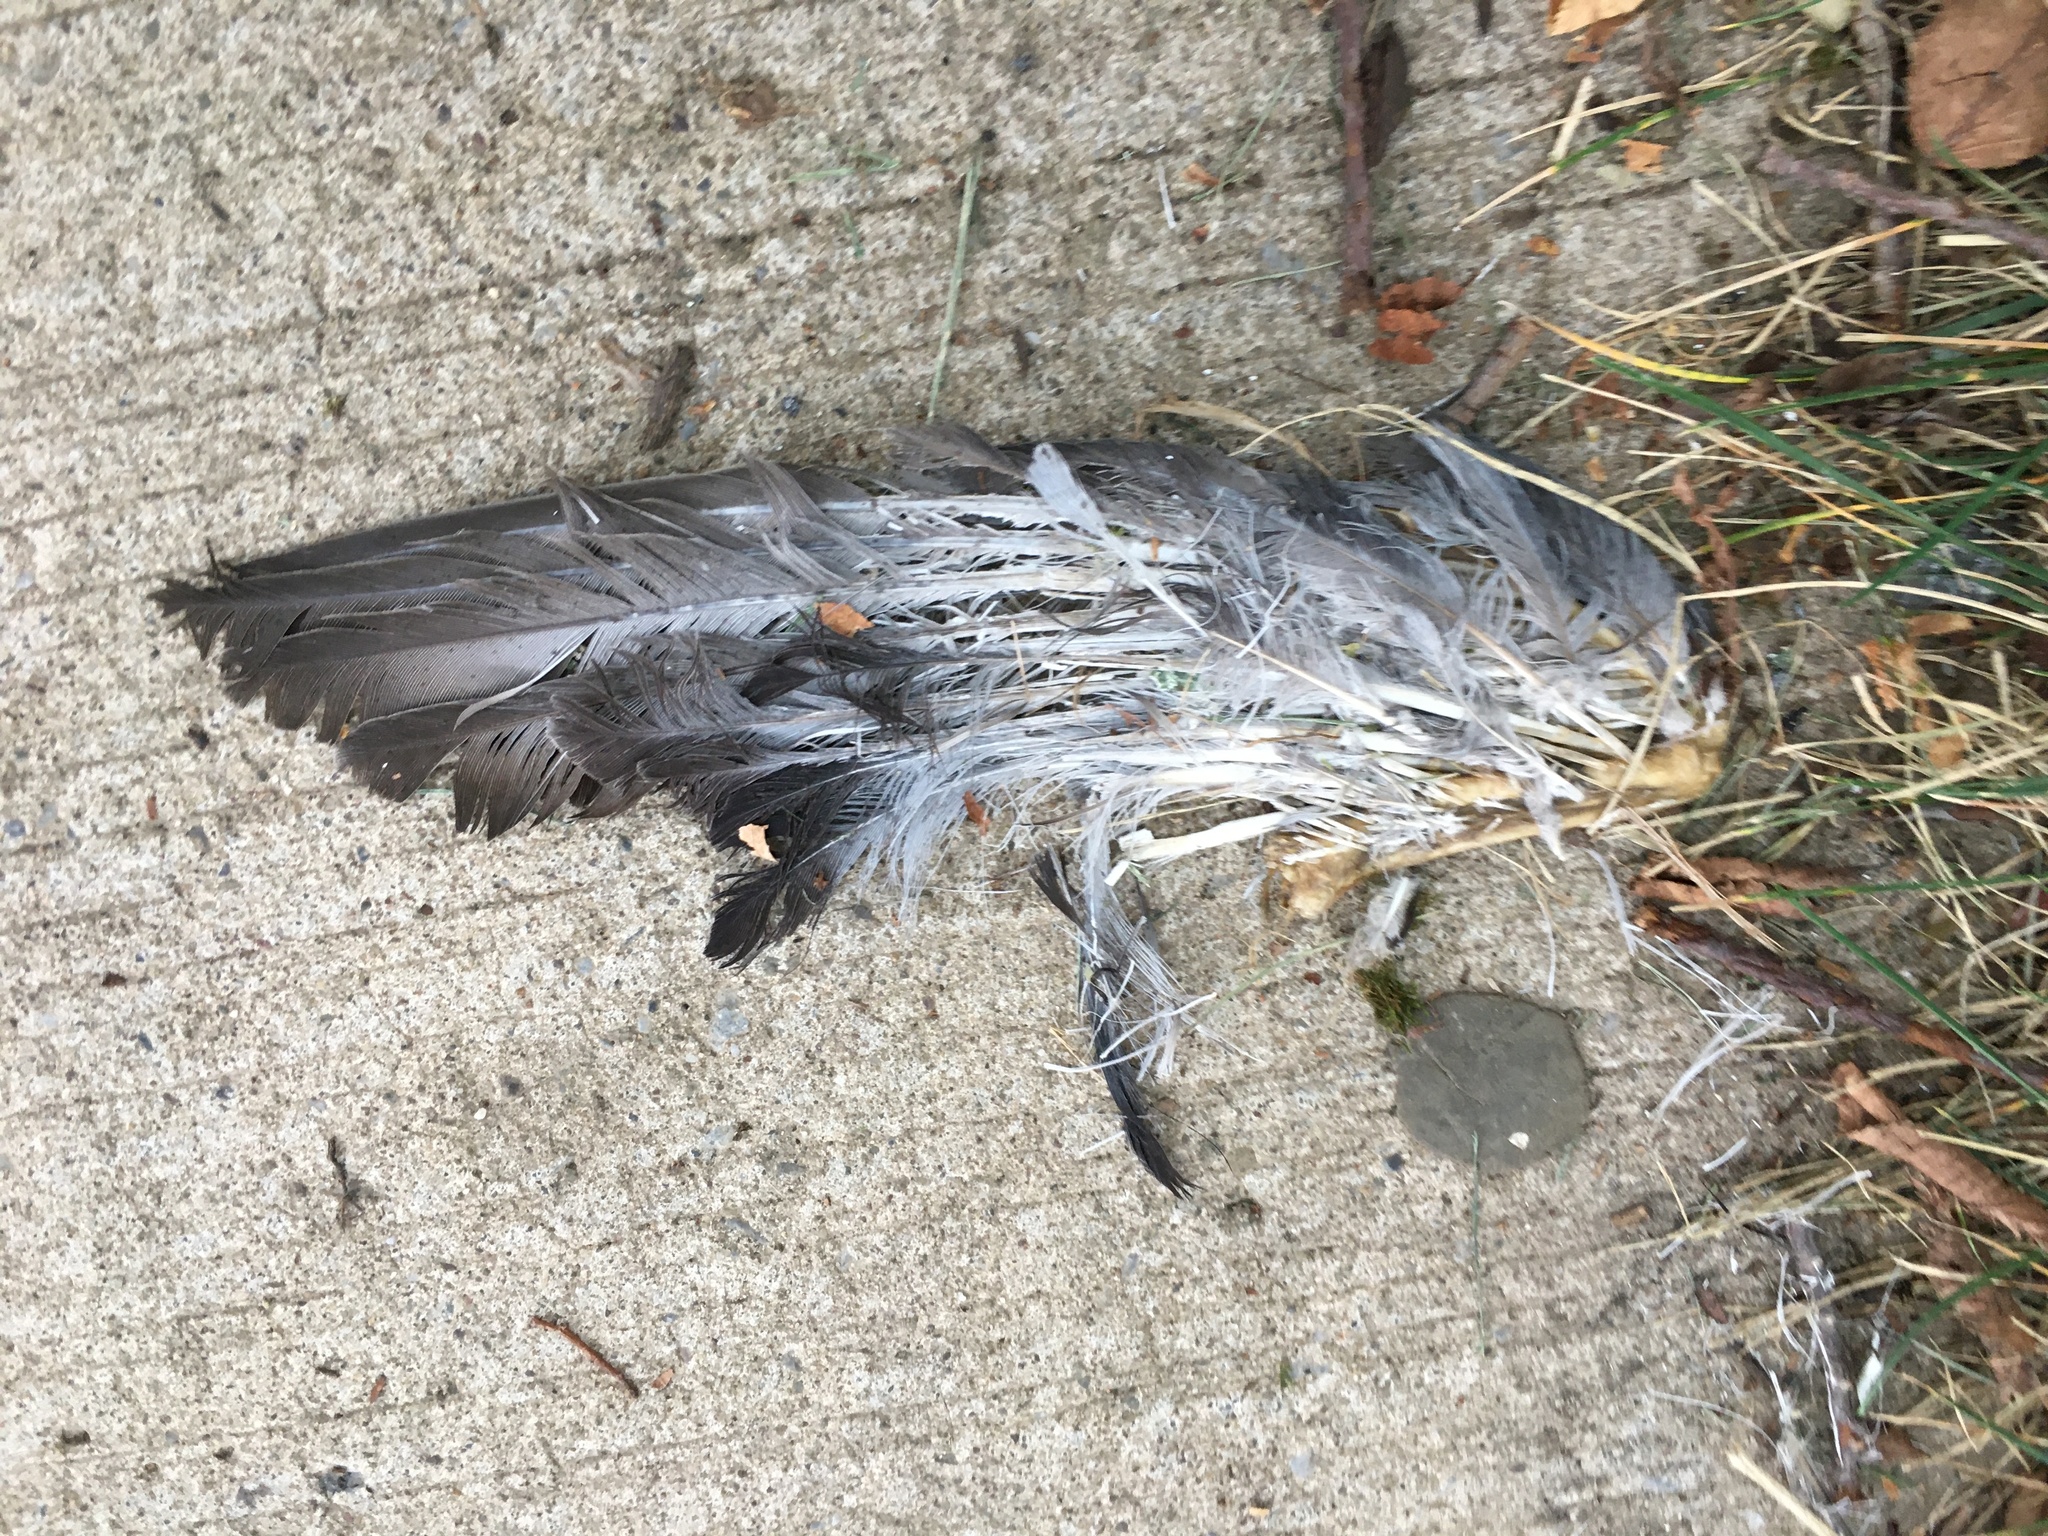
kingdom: Animalia
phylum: Chordata
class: Aves
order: Columbiformes
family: Columbidae
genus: Columba
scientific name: Columba livia
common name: Rock pigeon
